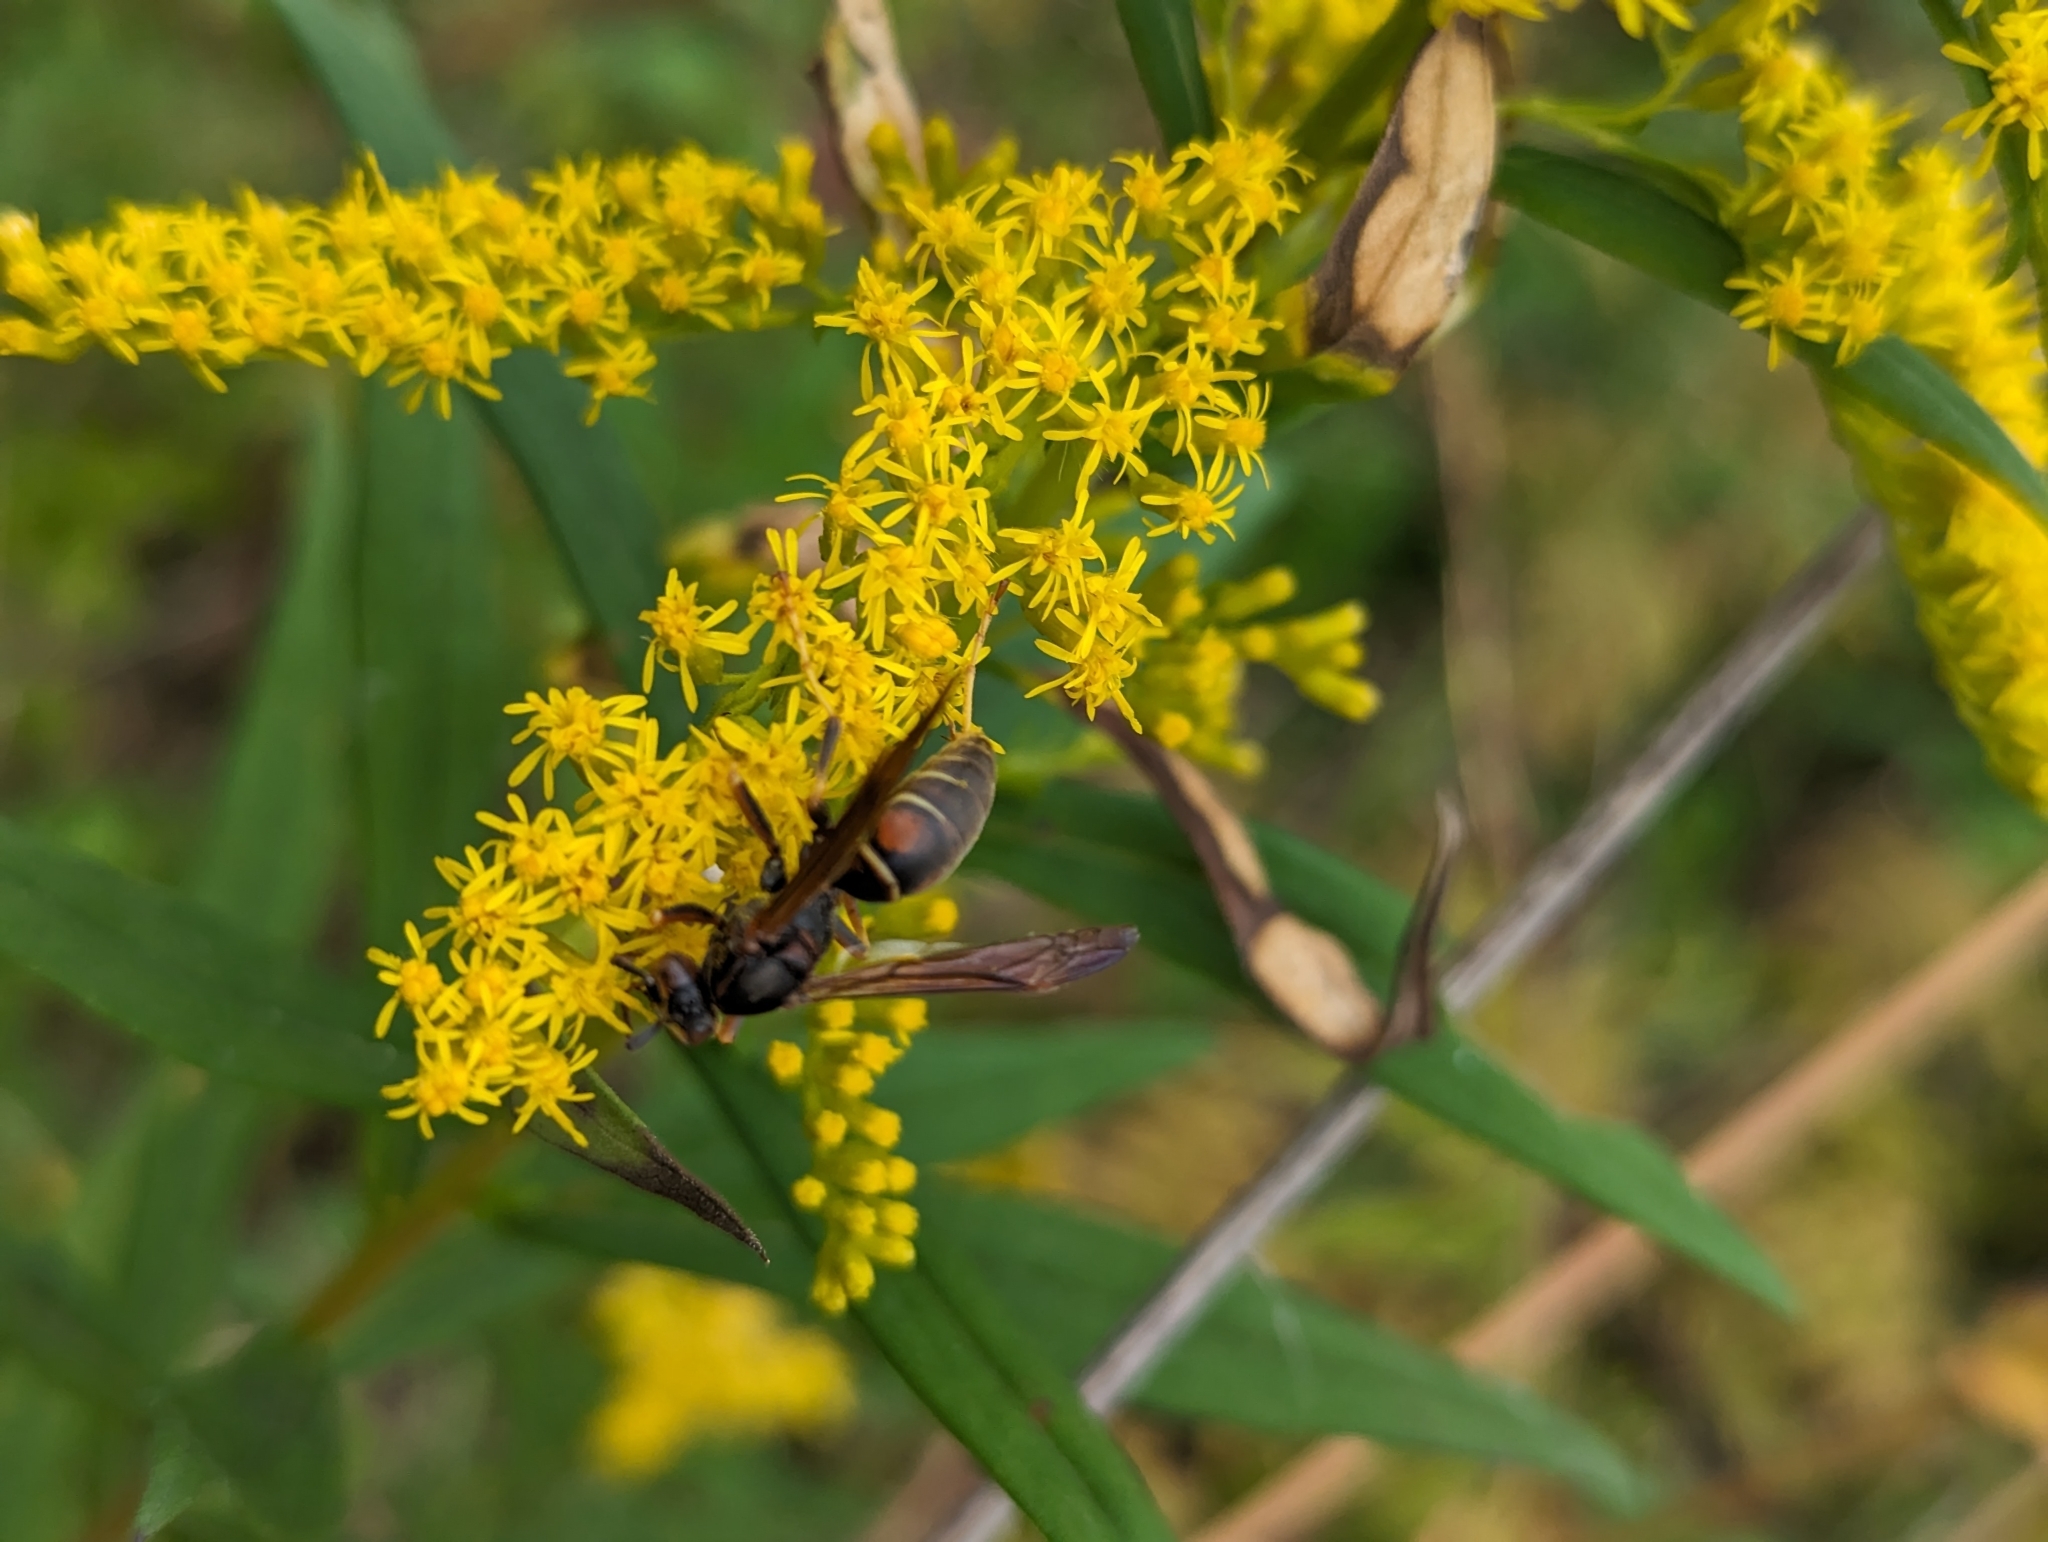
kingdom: Animalia
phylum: Arthropoda
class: Insecta
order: Hymenoptera
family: Eumenidae
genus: Polistes
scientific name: Polistes fuscatus
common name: Dark paper wasp
